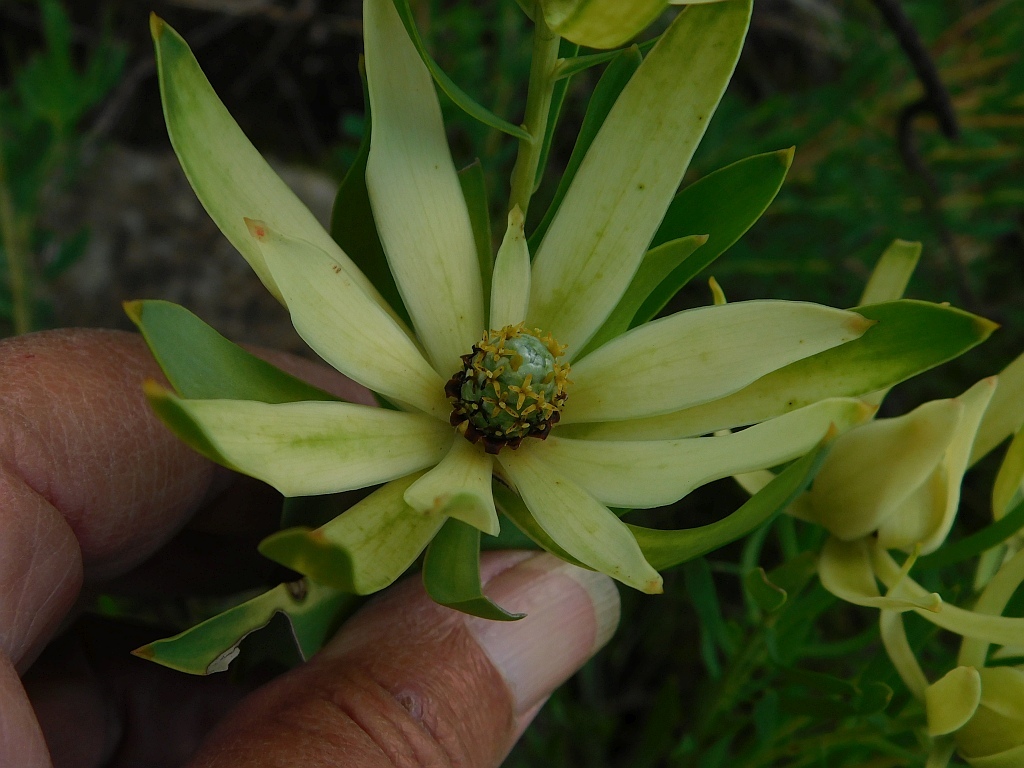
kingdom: Plantae
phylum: Tracheophyta
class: Magnoliopsida
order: Proteales
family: Proteaceae
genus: Leucadendron
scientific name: Leucadendron salignum
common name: Common sunshine conebush
